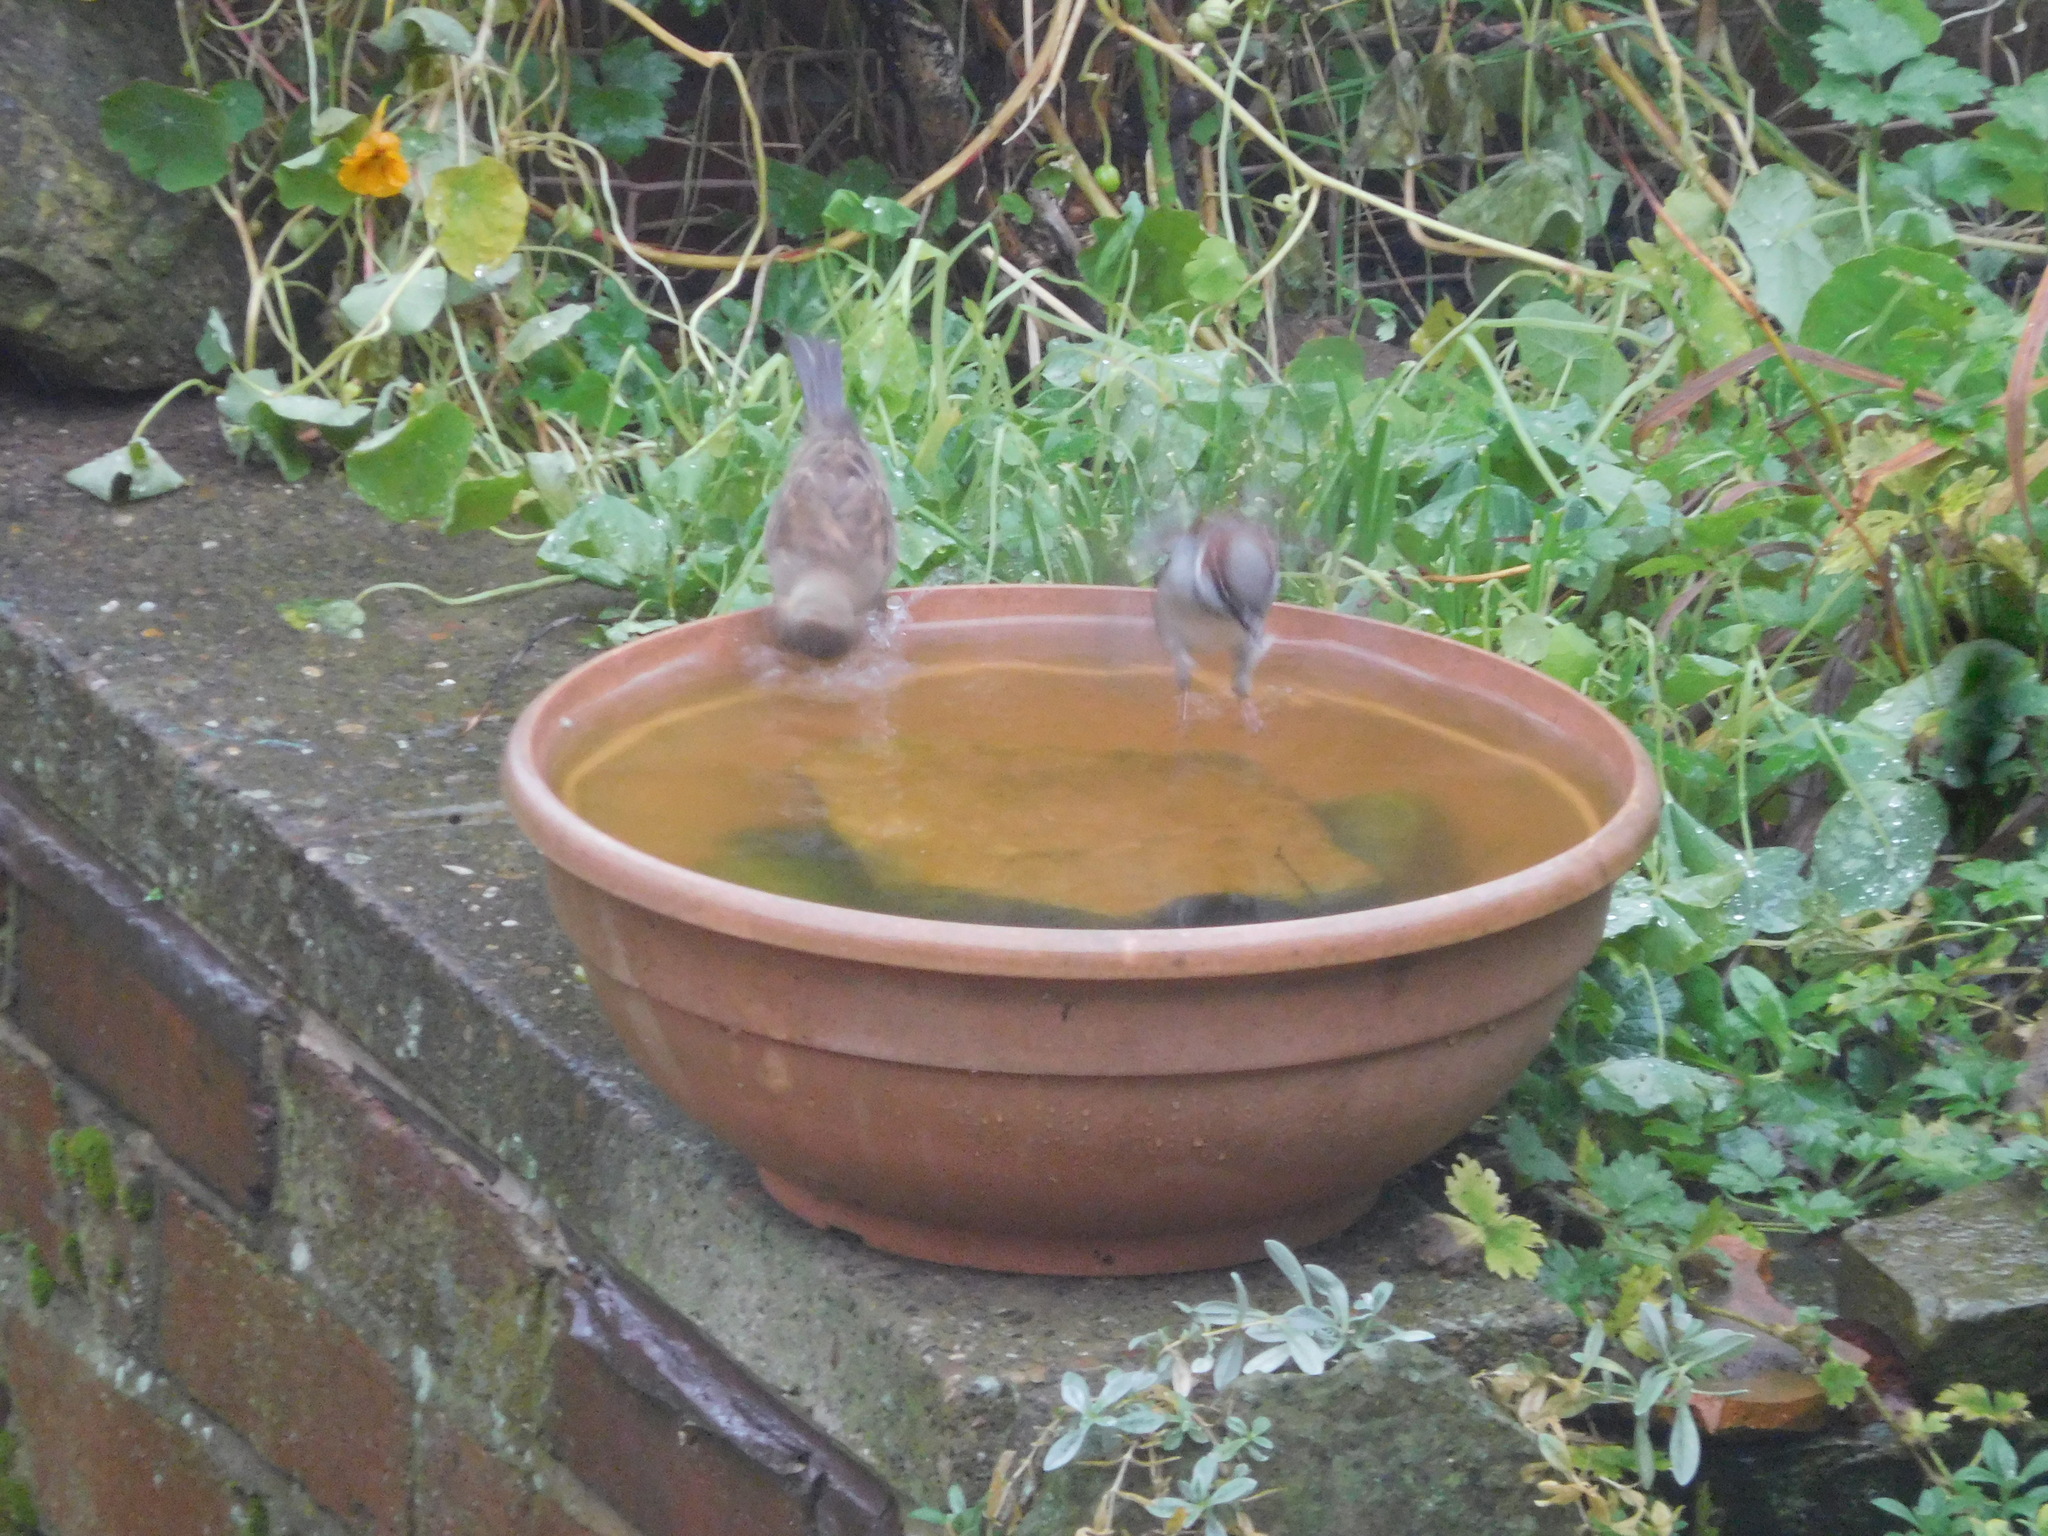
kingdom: Animalia
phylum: Chordata
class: Aves
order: Passeriformes
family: Passeridae
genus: Passer
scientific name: Passer domesticus
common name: House sparrow
